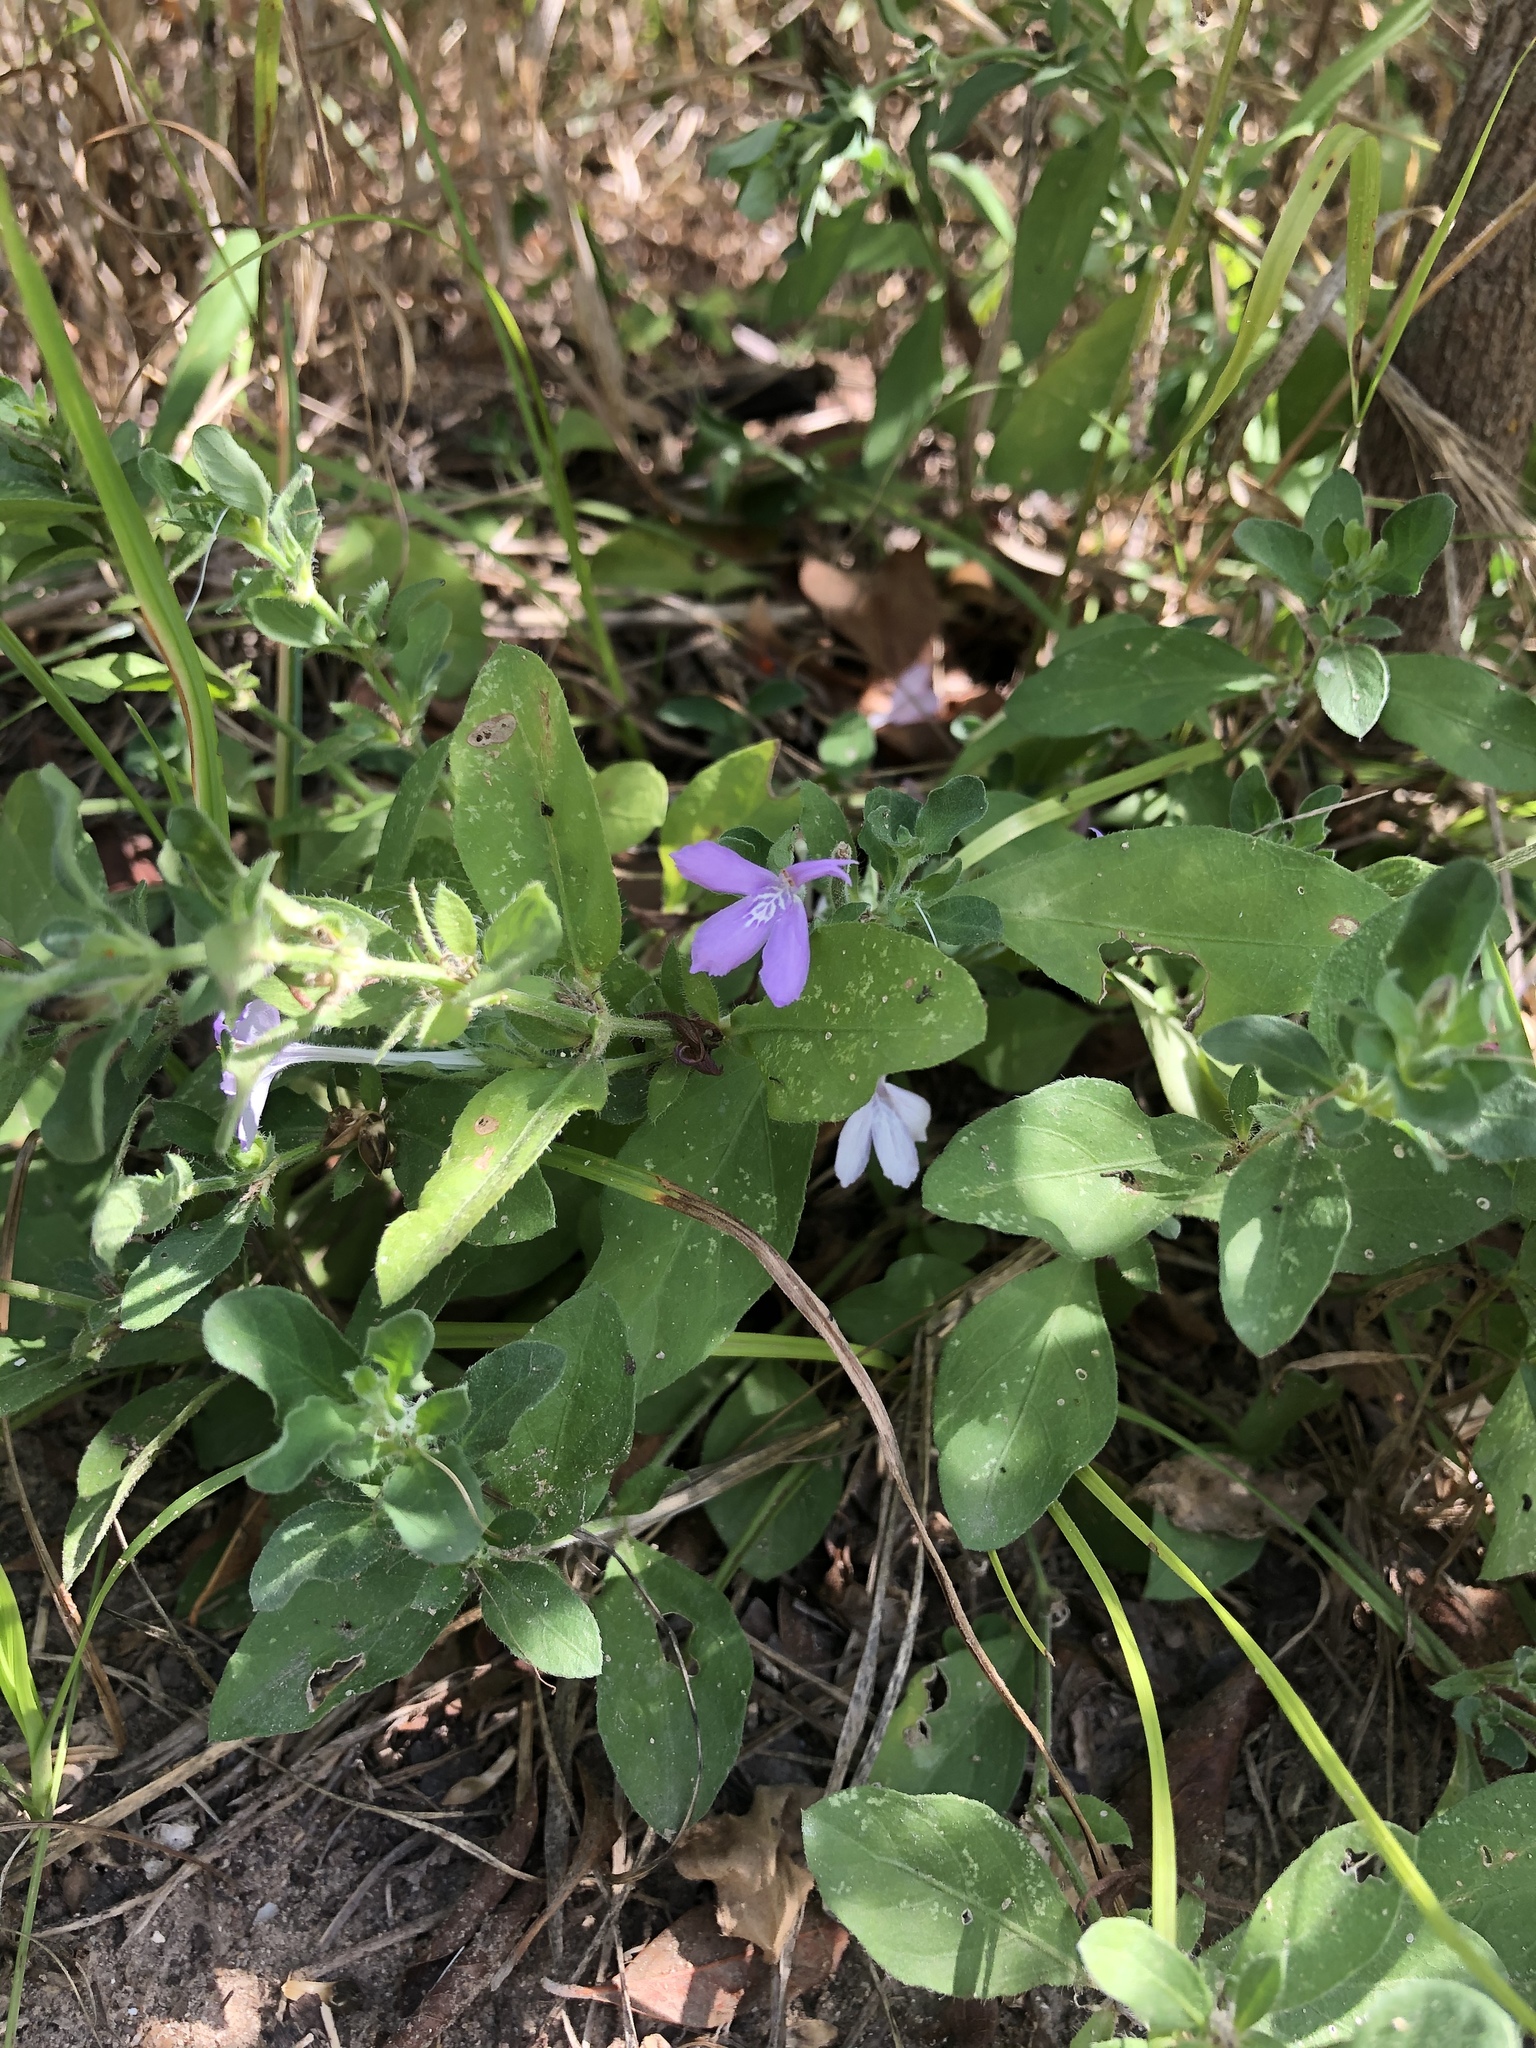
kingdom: Plantae
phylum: Tracheophyta
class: Magnoliopsida
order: Lamiales
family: Acanthaceae
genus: Justicia
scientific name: Justicia pilosella
